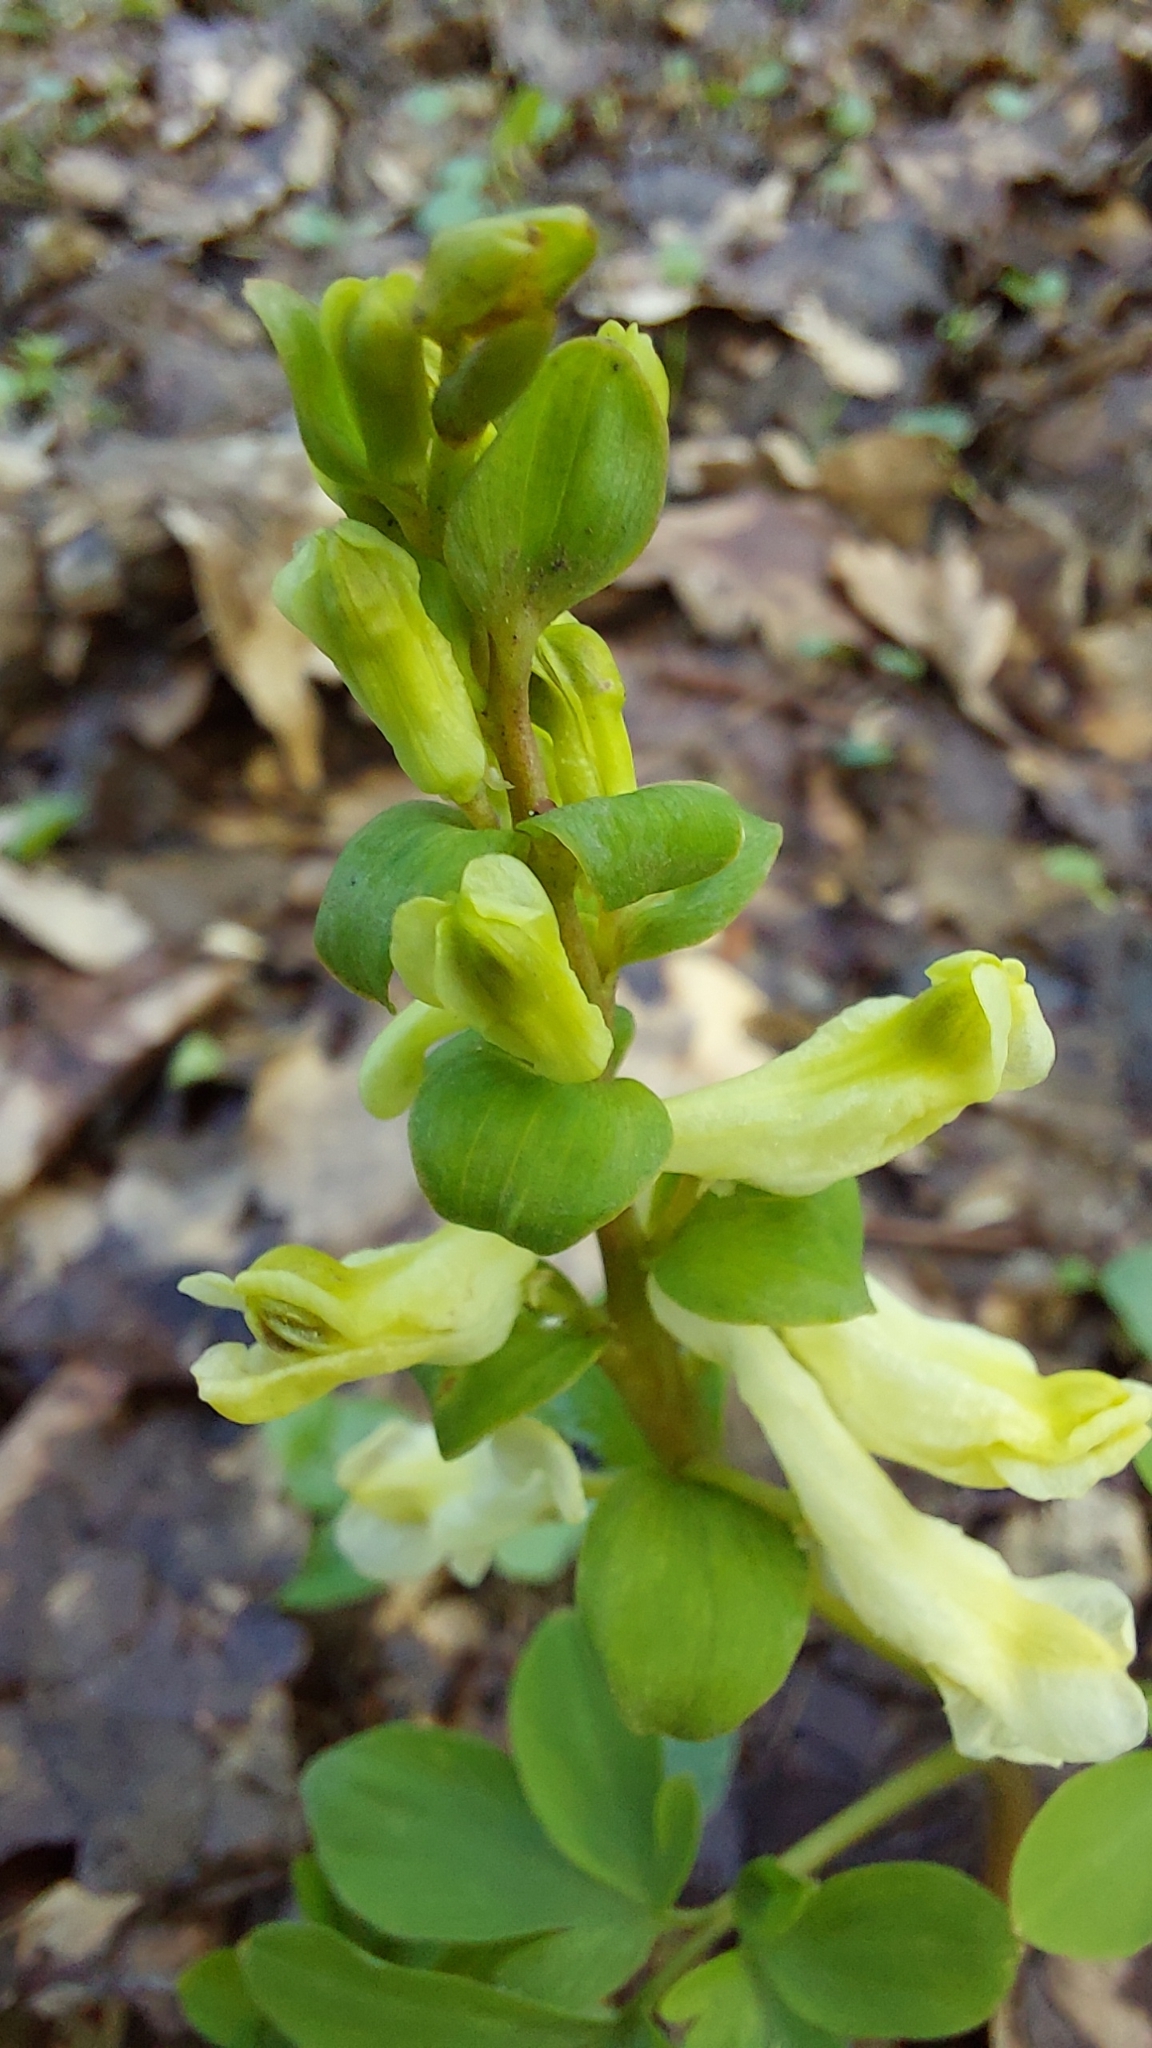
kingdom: Plantae
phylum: Tracheophyta
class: Magnoliopsida
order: Ranunculales
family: Papaveraceae
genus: Corydalis
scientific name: Corydalis cava
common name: Hollowroot
